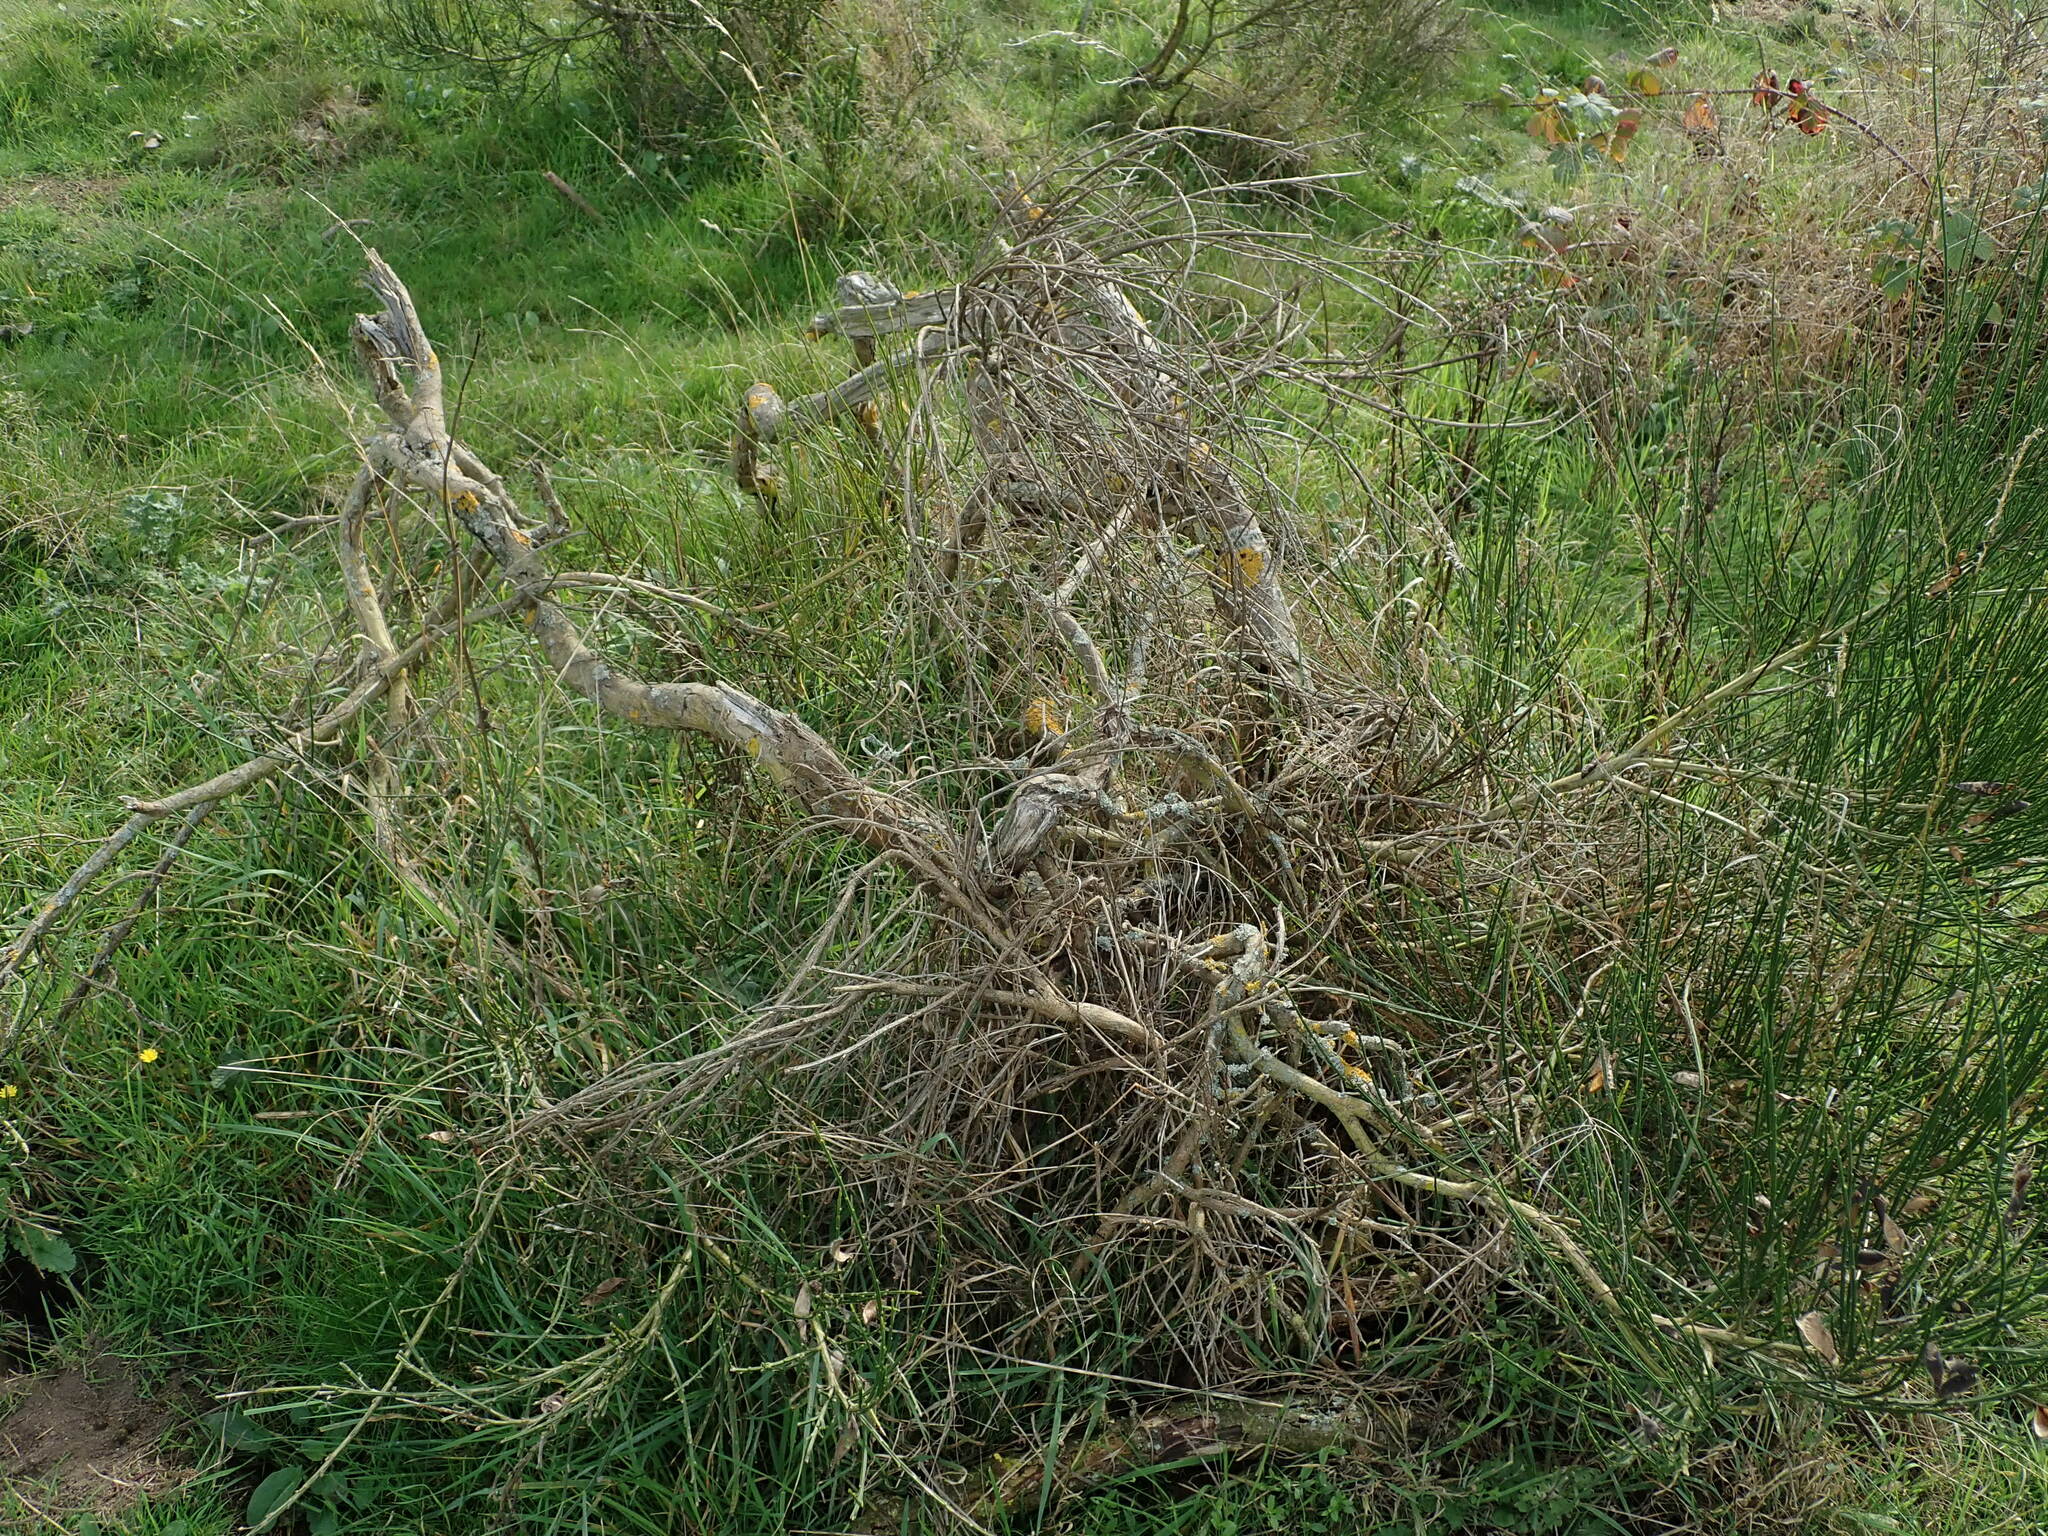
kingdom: Plantae
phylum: Tracheophyta
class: Magnoliopsida
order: Fabales
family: Fabaceae
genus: Cytisus
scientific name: Cytisus scoparius
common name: Scotch broom
